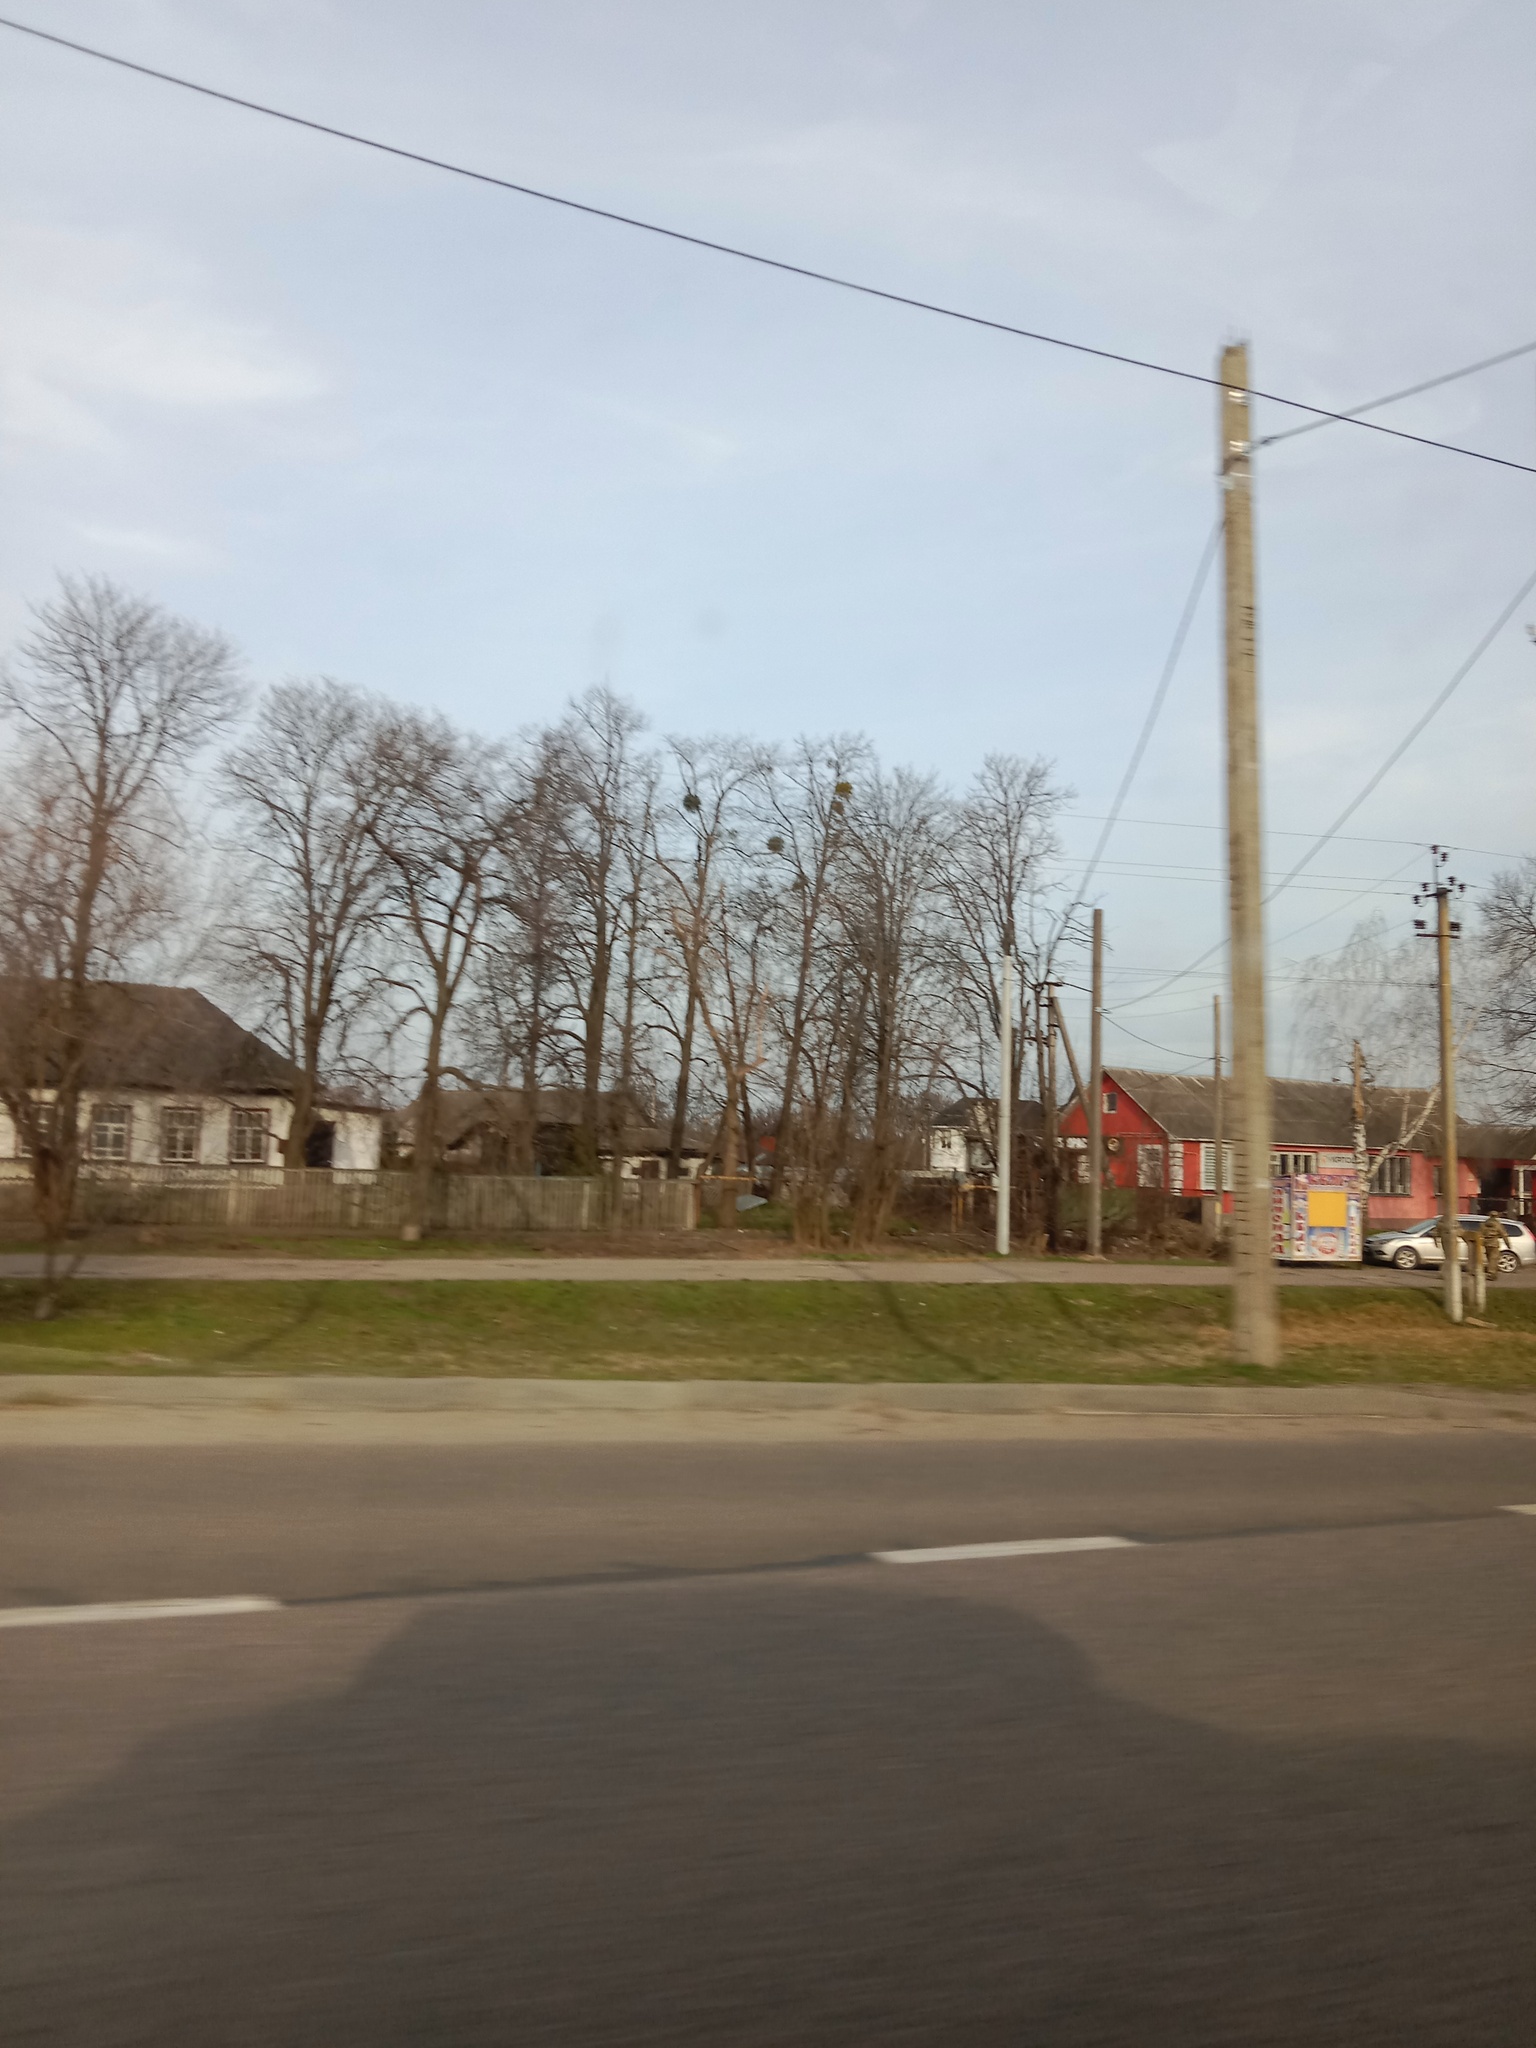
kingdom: Plantae
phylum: Tracheophyta
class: Magnoliopsida
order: Santalales
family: Viscaceae
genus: Viscum
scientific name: Viscum album
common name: Mistletoe
